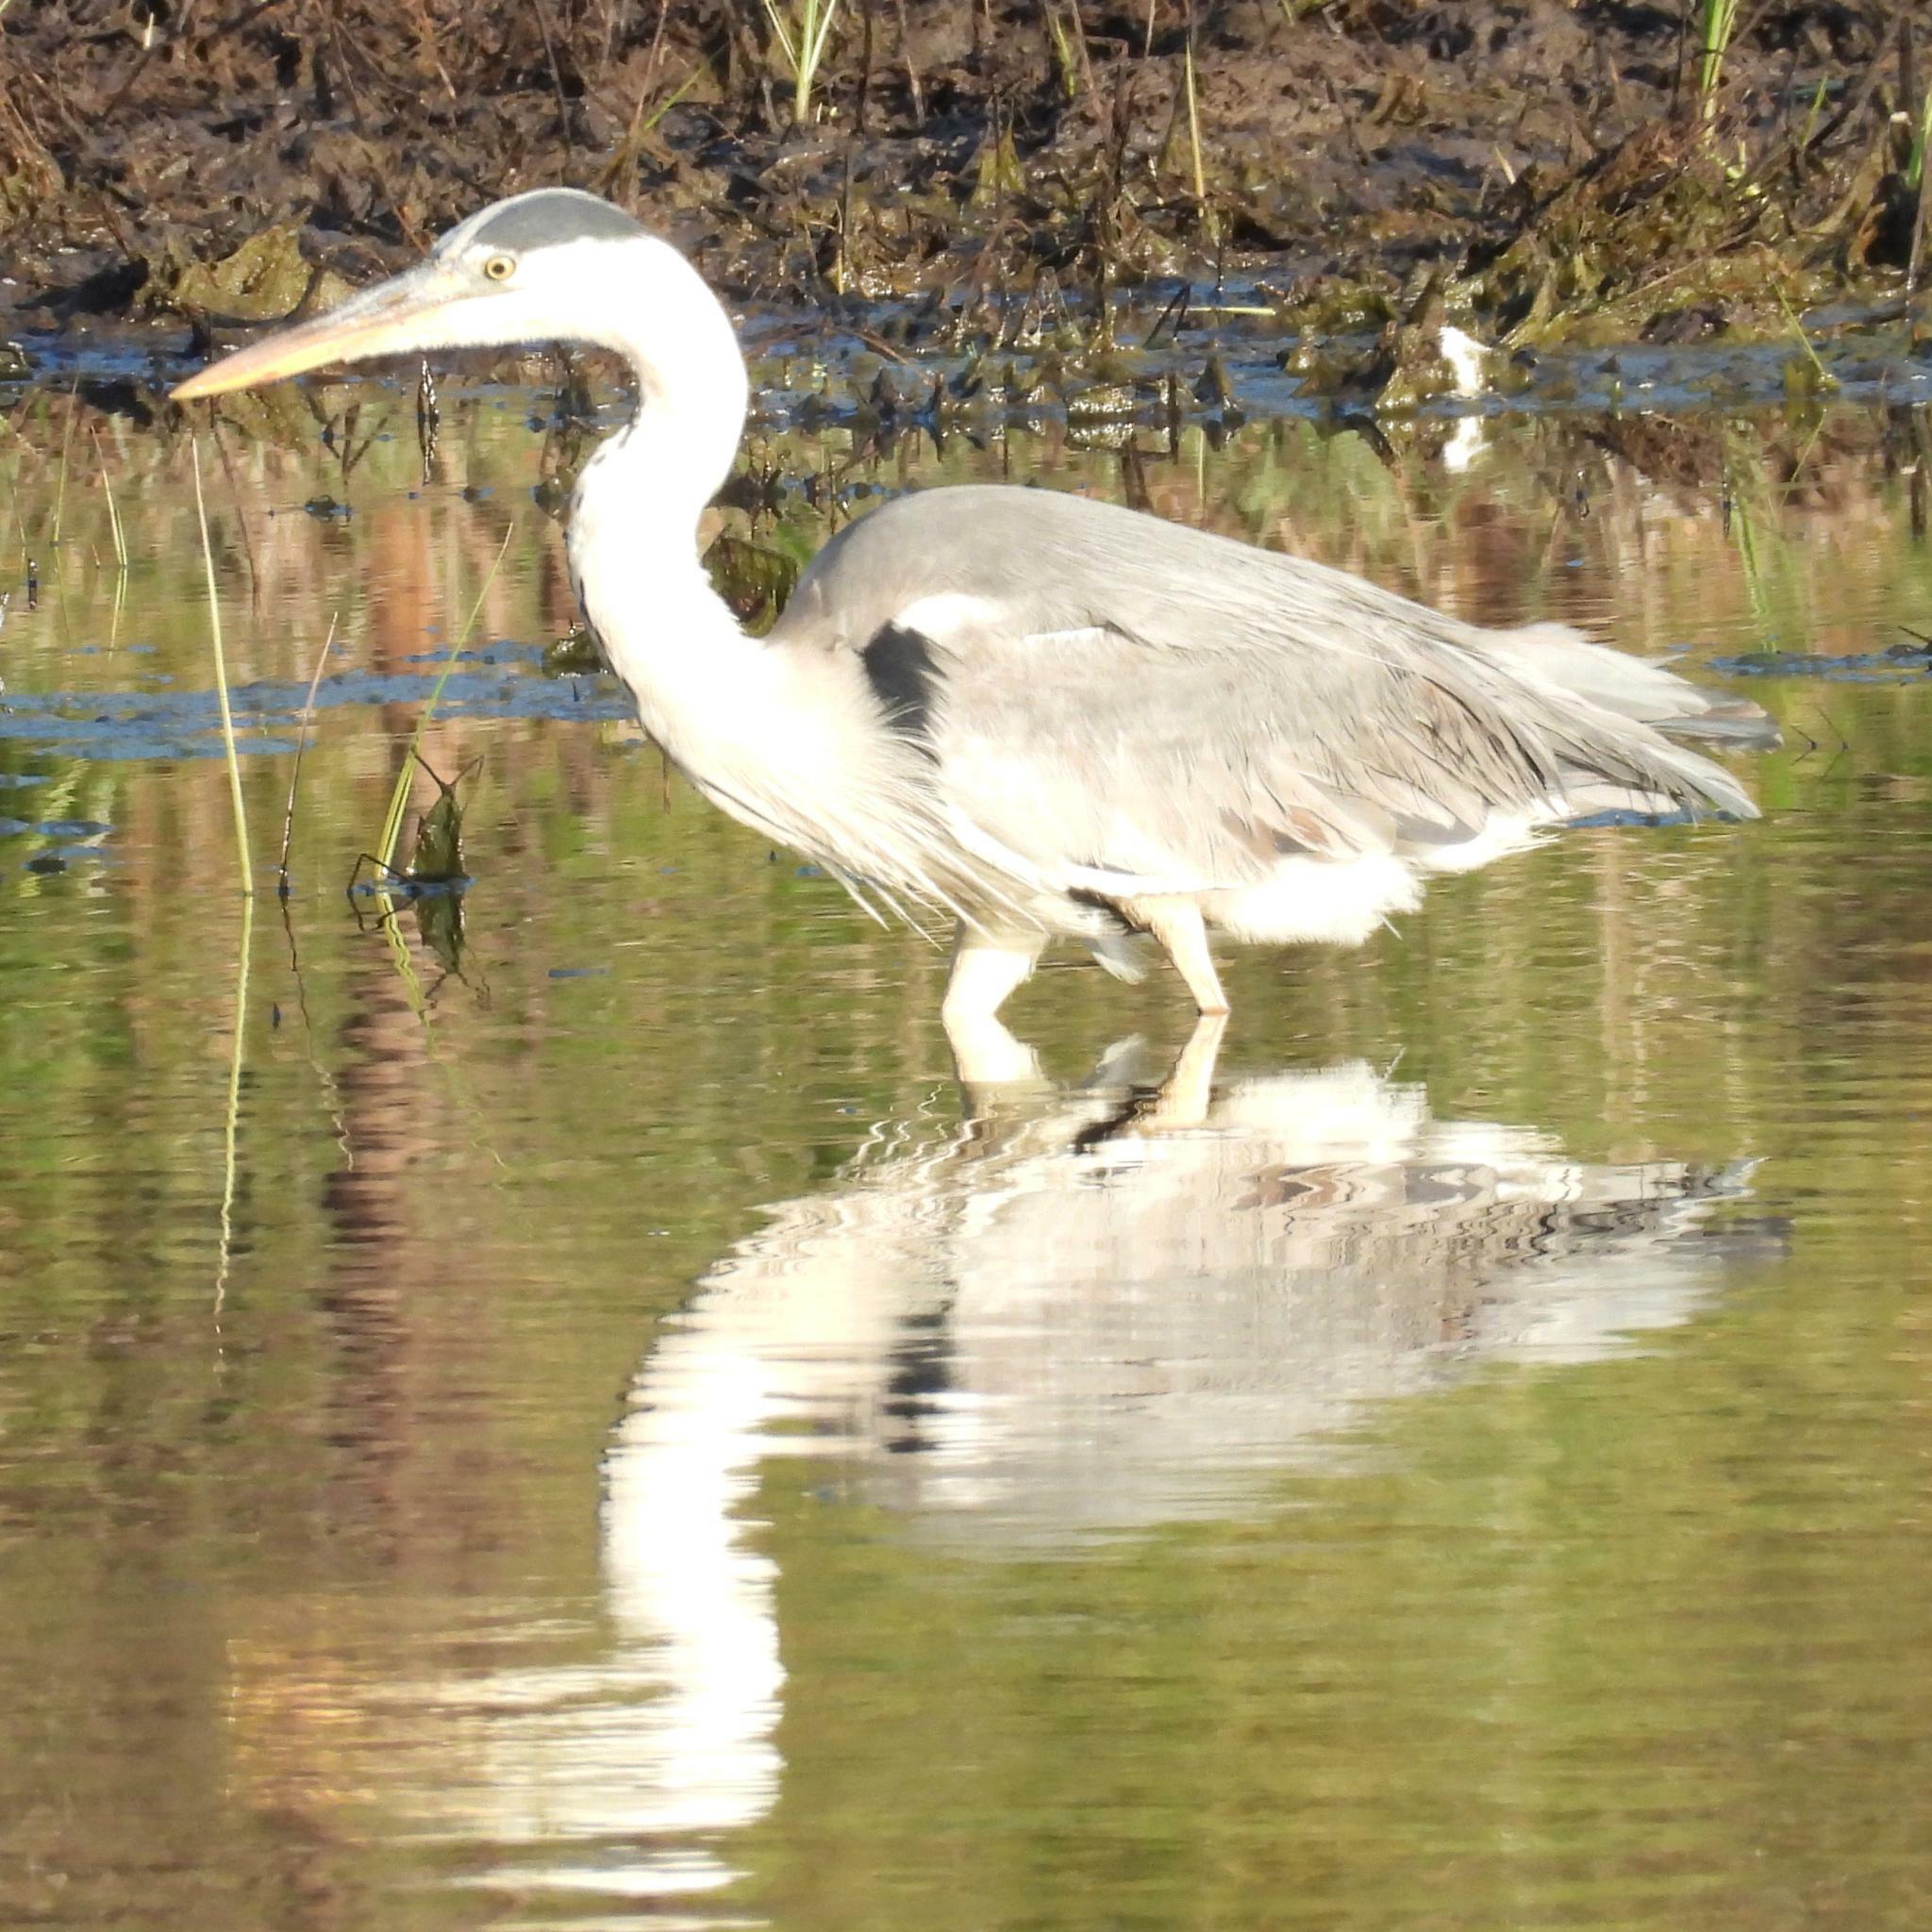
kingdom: Animalia
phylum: Chordata
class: Aves
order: Pelecaniformes
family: Ardeidae
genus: Ardea
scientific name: Ardea cinerea
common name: Grey heron
